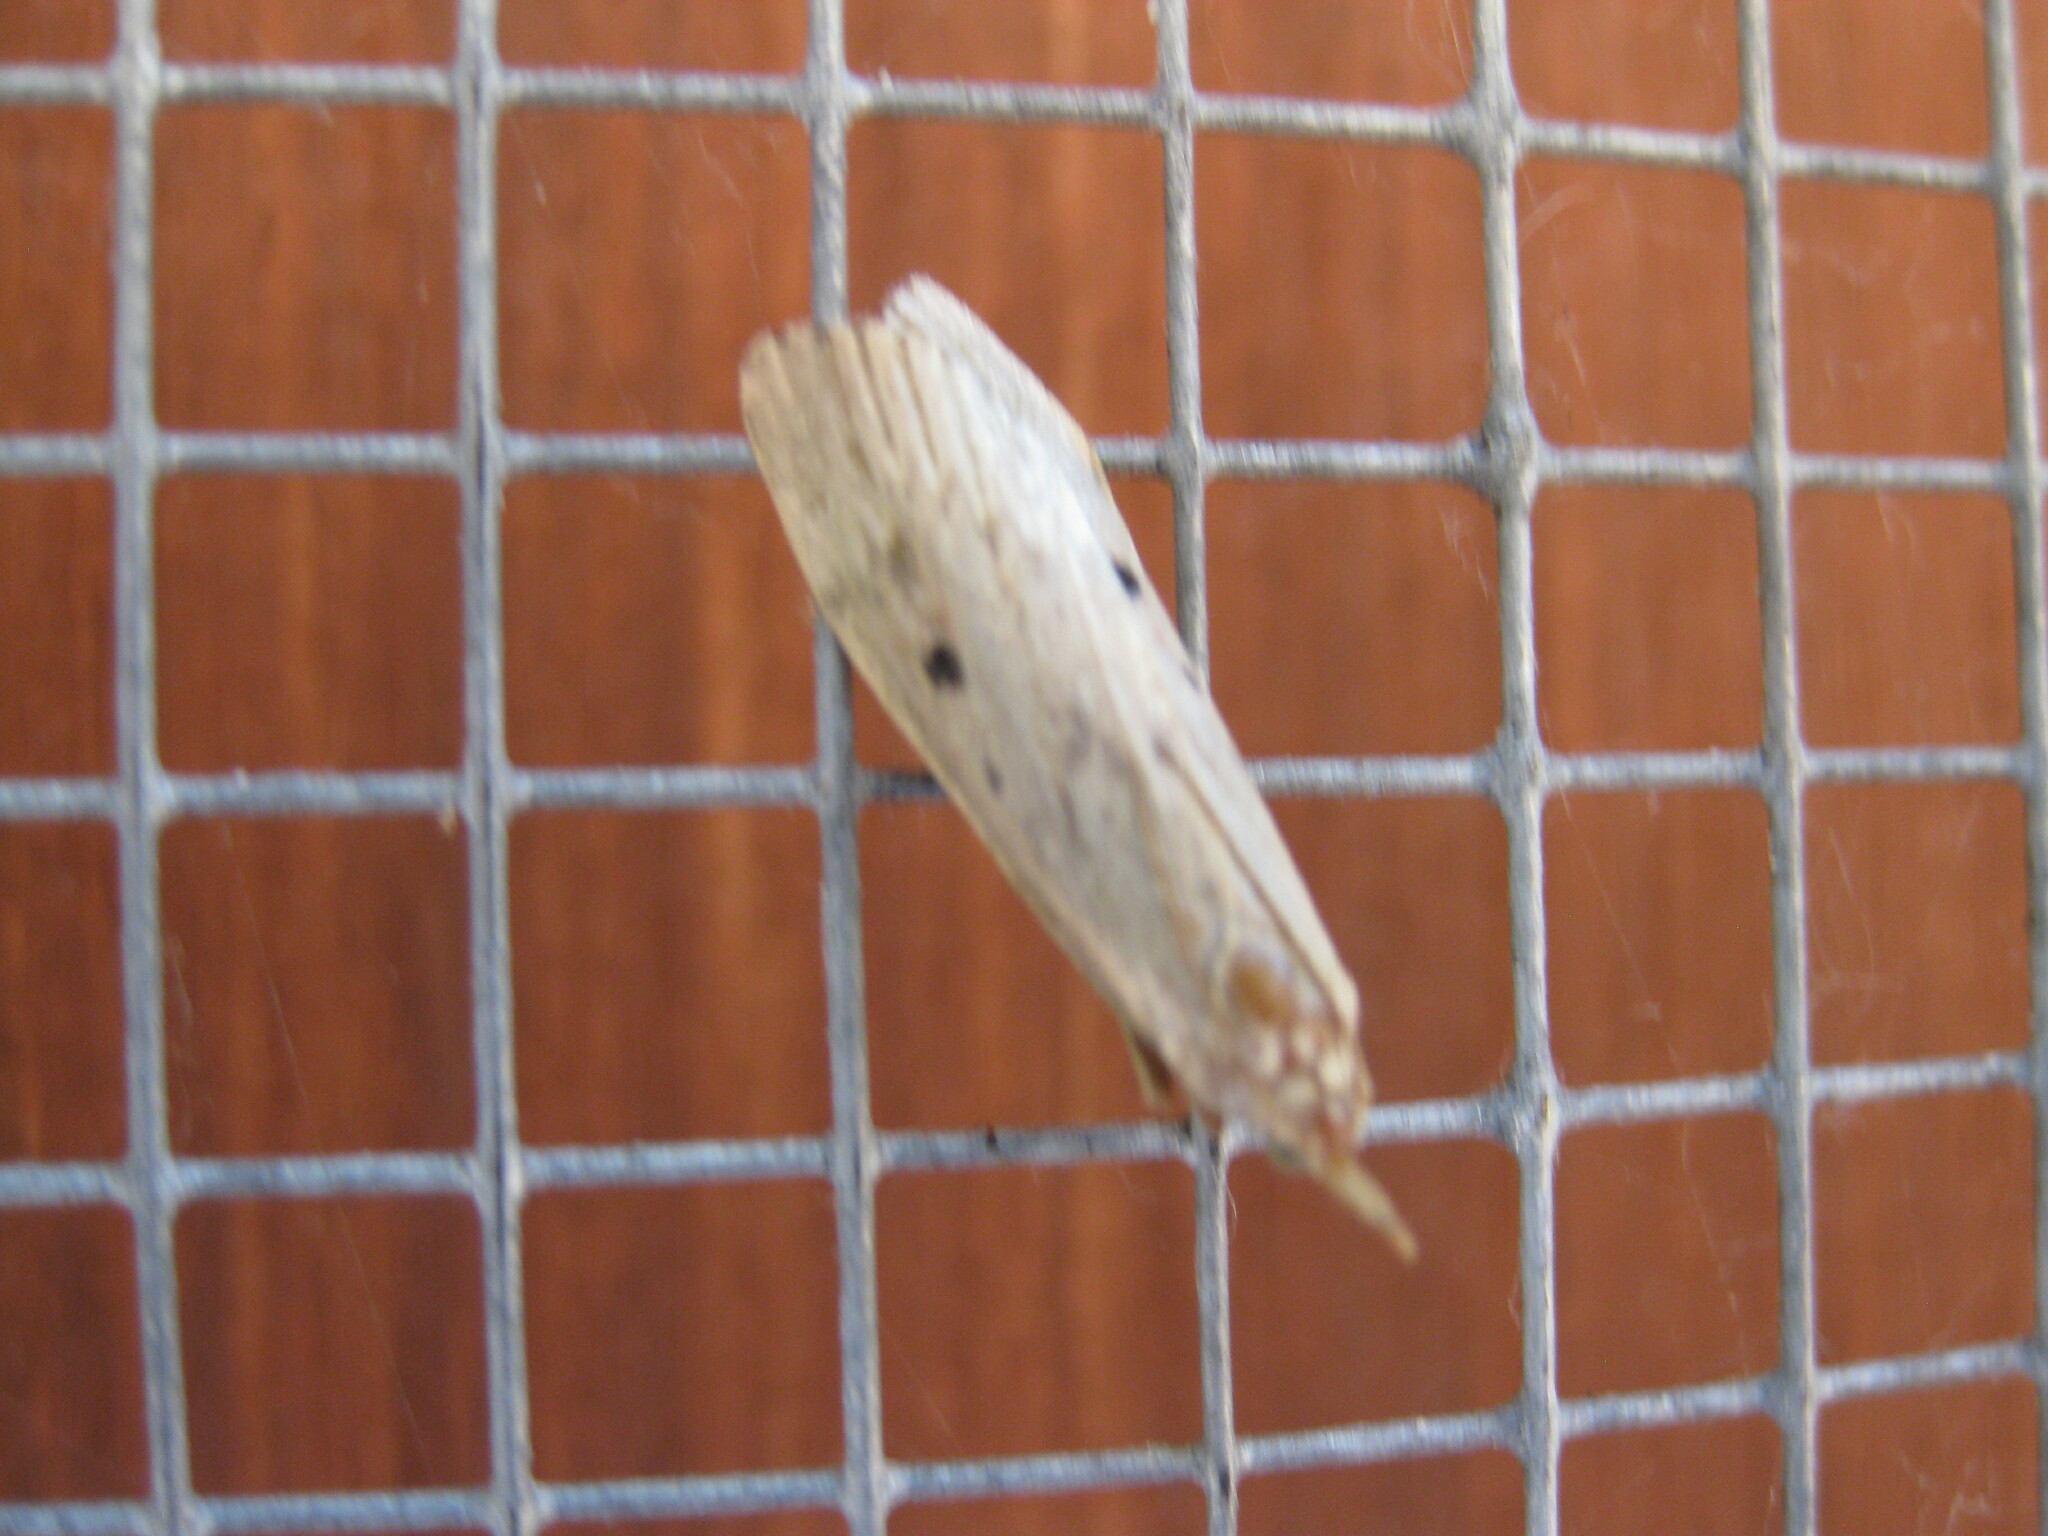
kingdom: Animalia
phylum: Arthropoda
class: Insecta
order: Lepidoptera
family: Pyralidae
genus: Aphomia
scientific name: Aphomia sociella
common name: Bee moth
